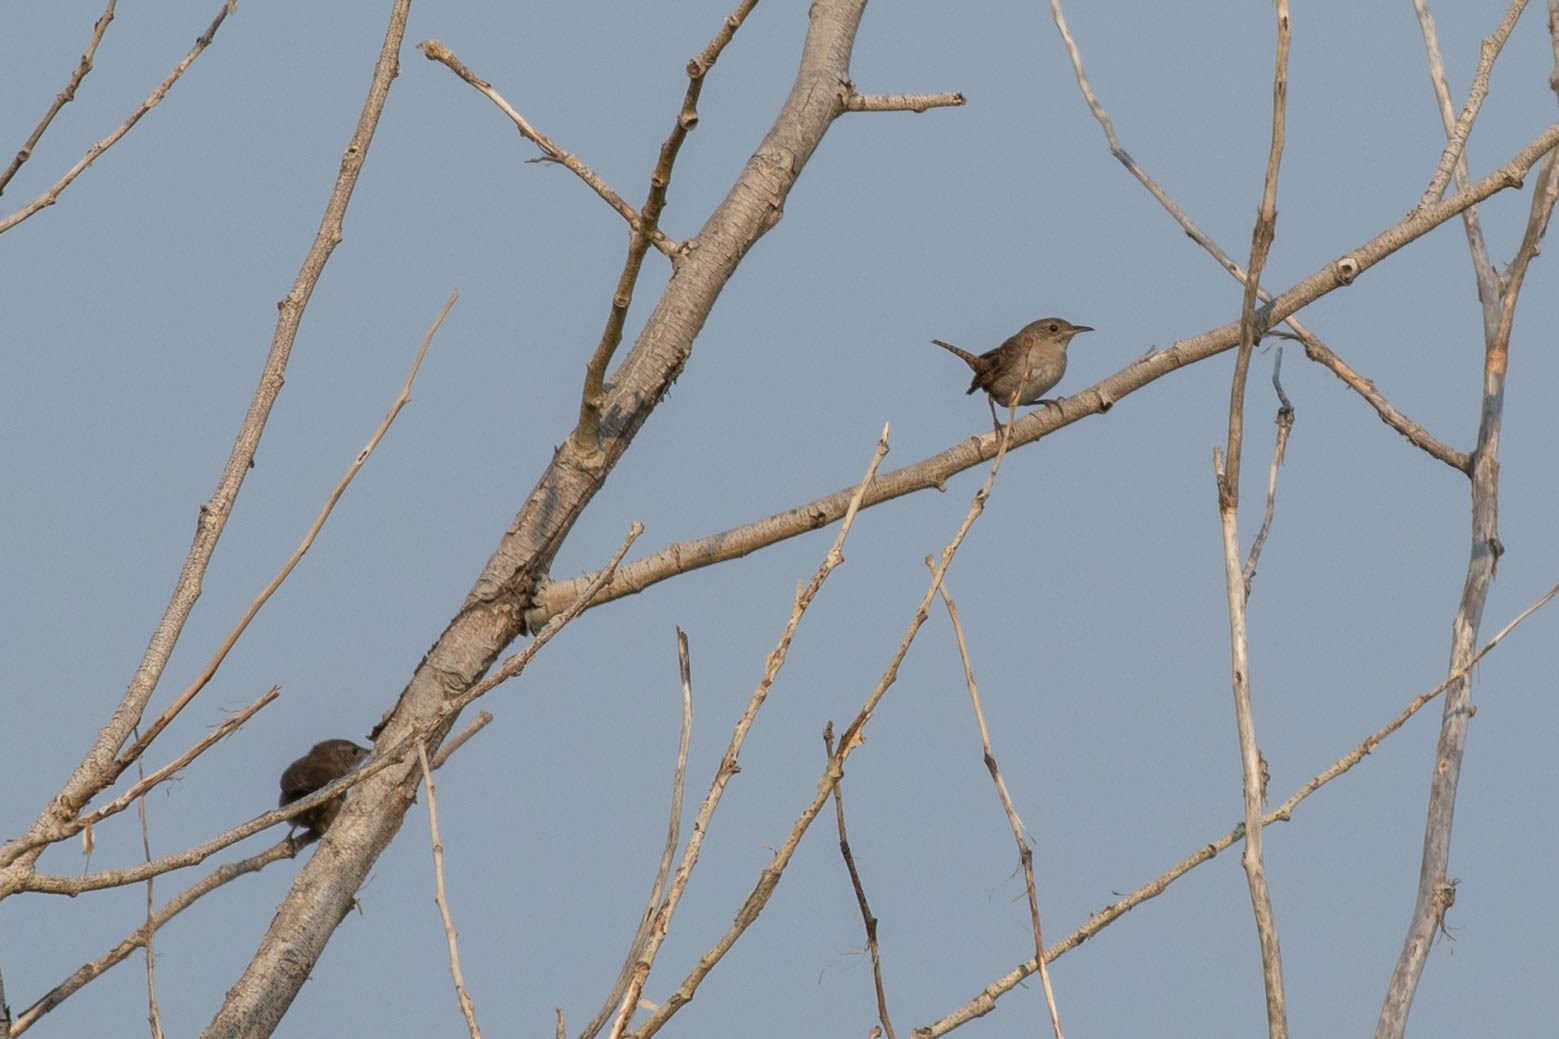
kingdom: Animalia
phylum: Chordata
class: Aves
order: Passeriformes
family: Troglodytidae
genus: Troglodytes
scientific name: Troglodytes aedon
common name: House wren
